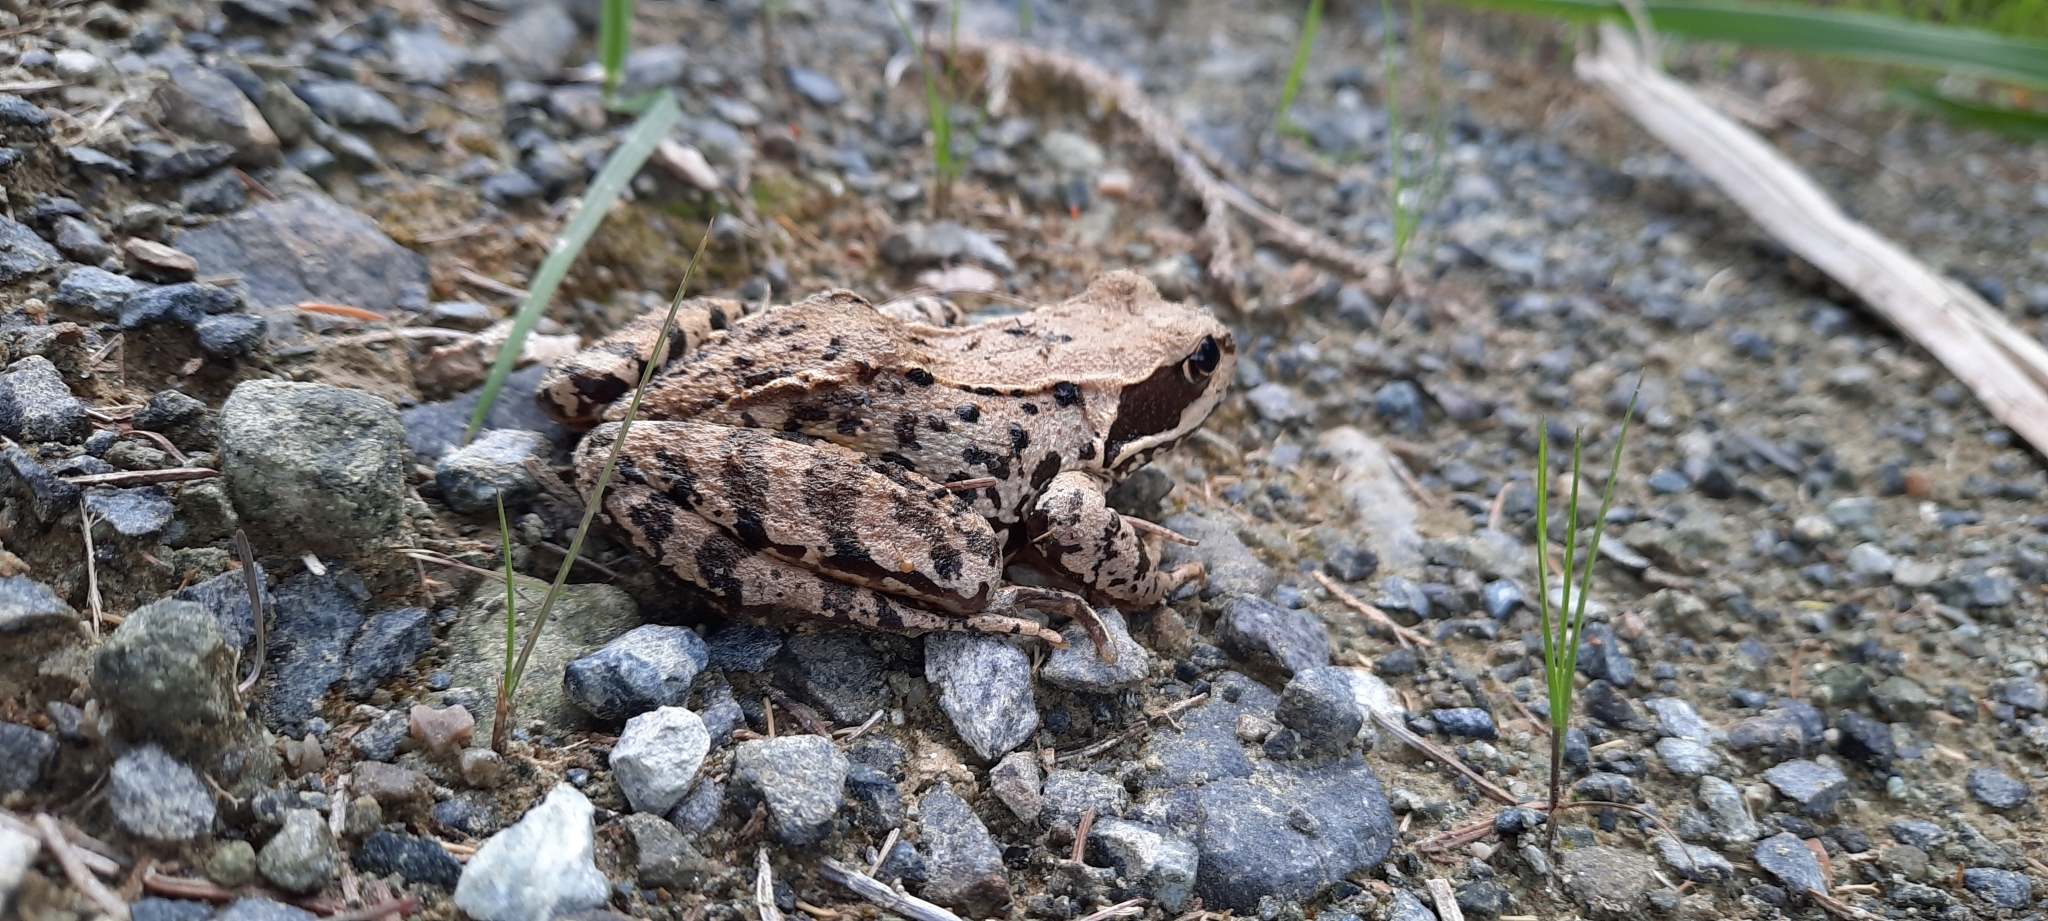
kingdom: Animalia
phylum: Chordata
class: Amphibia
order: Anura
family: Ranidae
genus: Rana
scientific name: Rana temporaria
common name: Common frog
